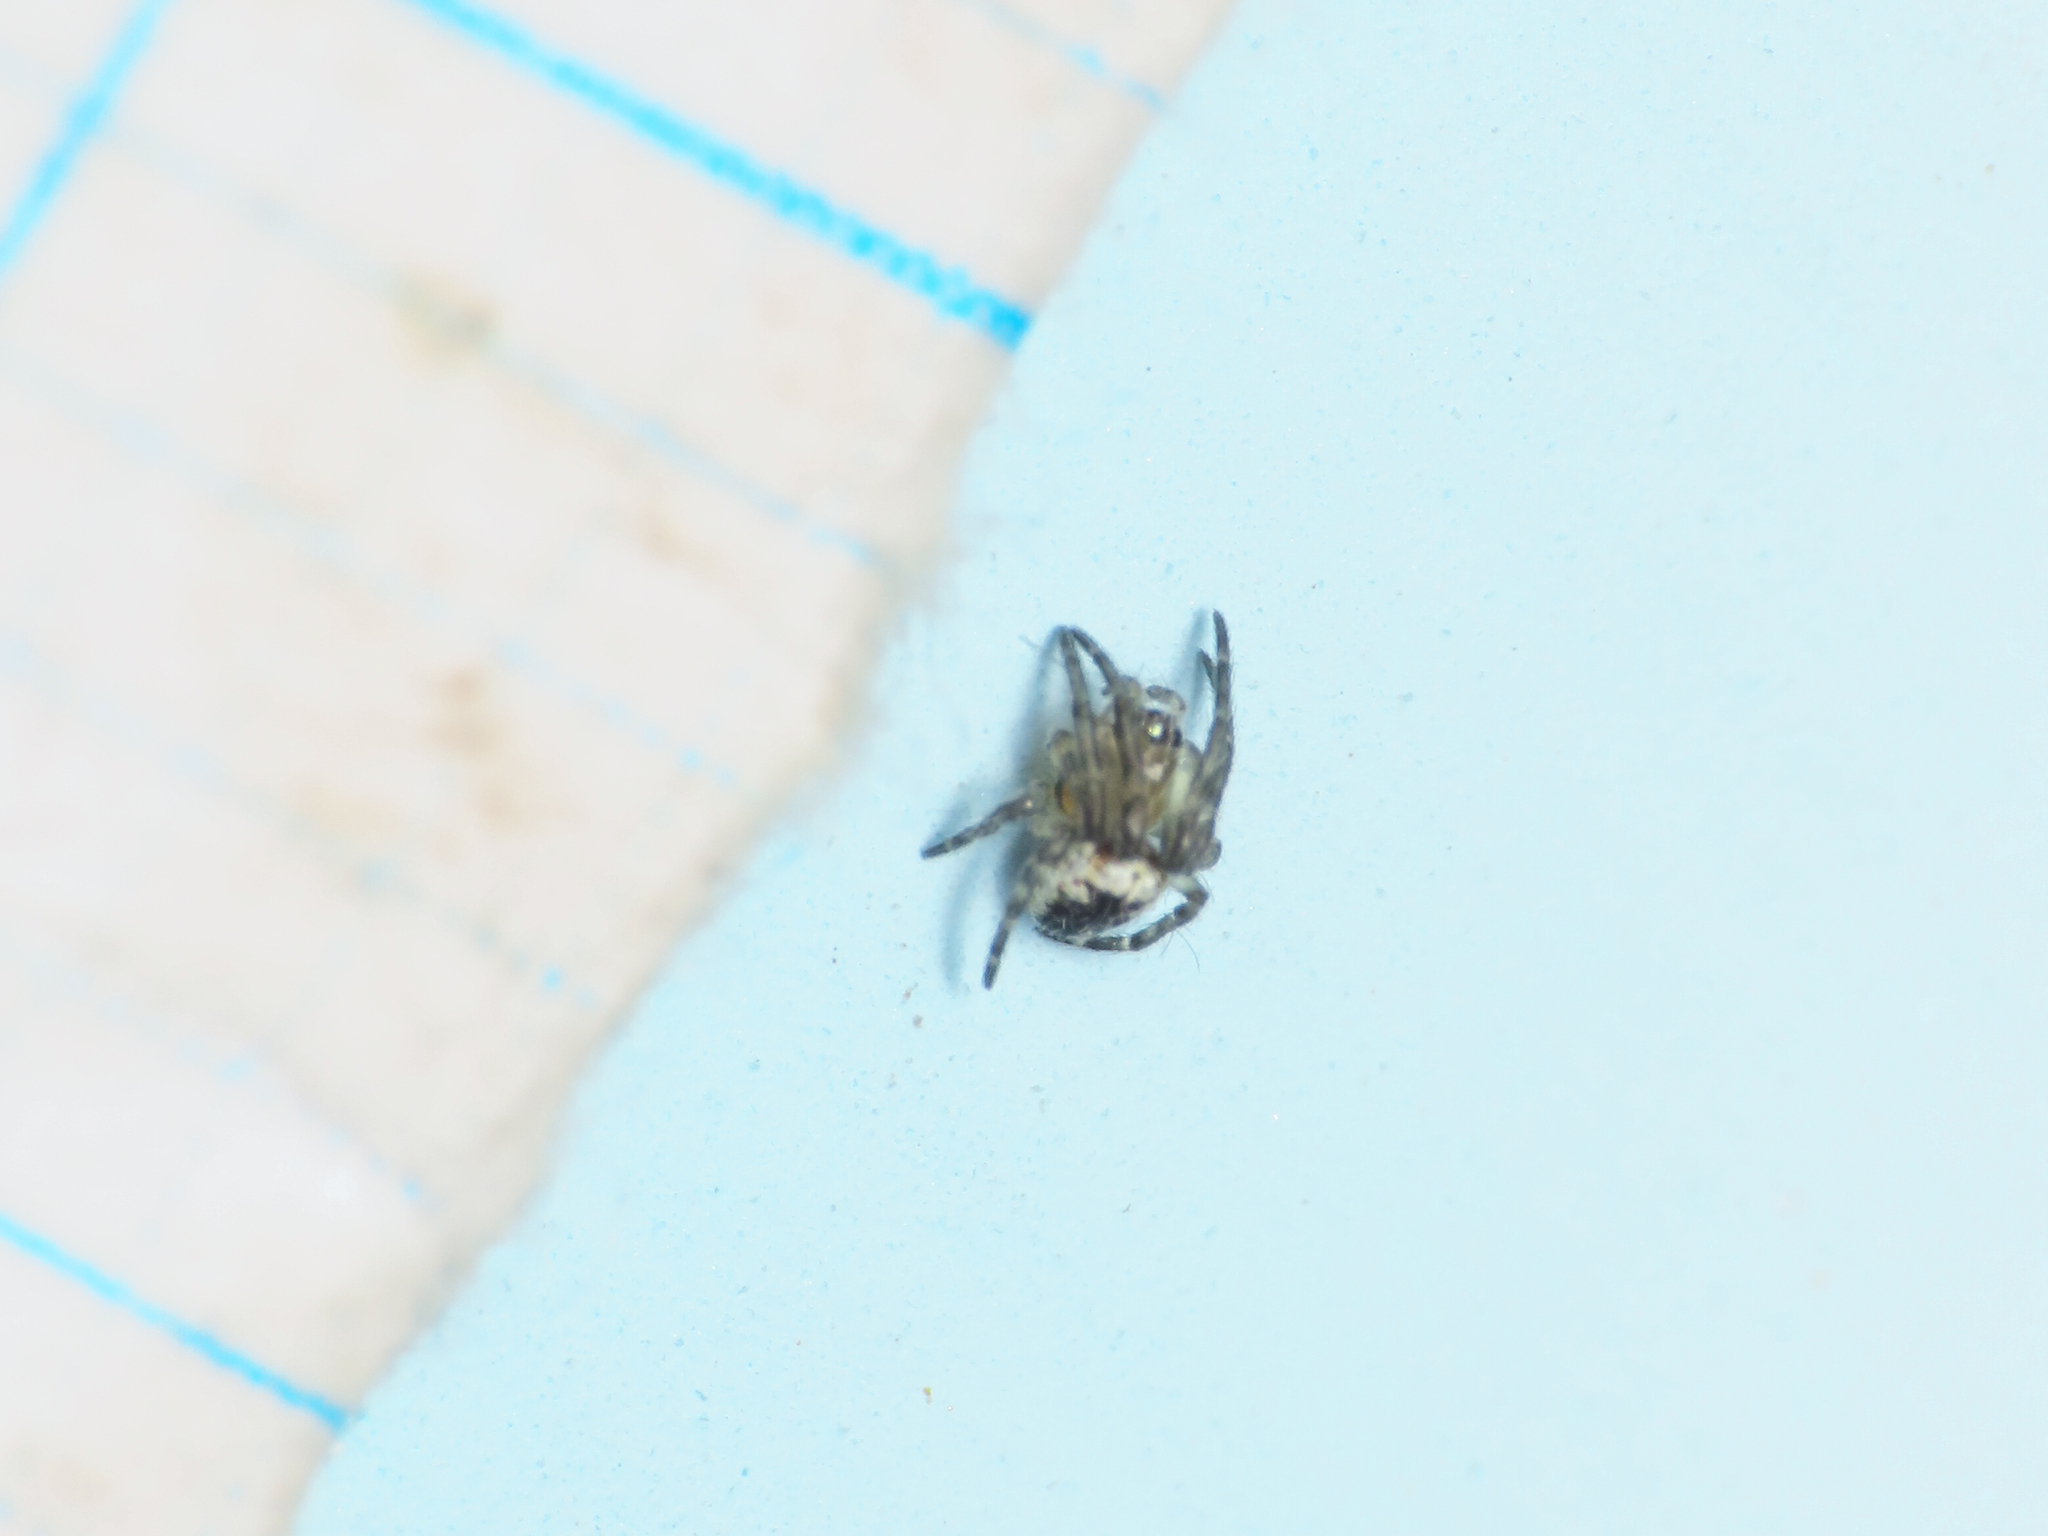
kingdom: Animalia
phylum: Arthropoda
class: Arachnida
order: Araneae
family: Araneidae
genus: Zilla
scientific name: Zilla diodia
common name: Zilla diodia
